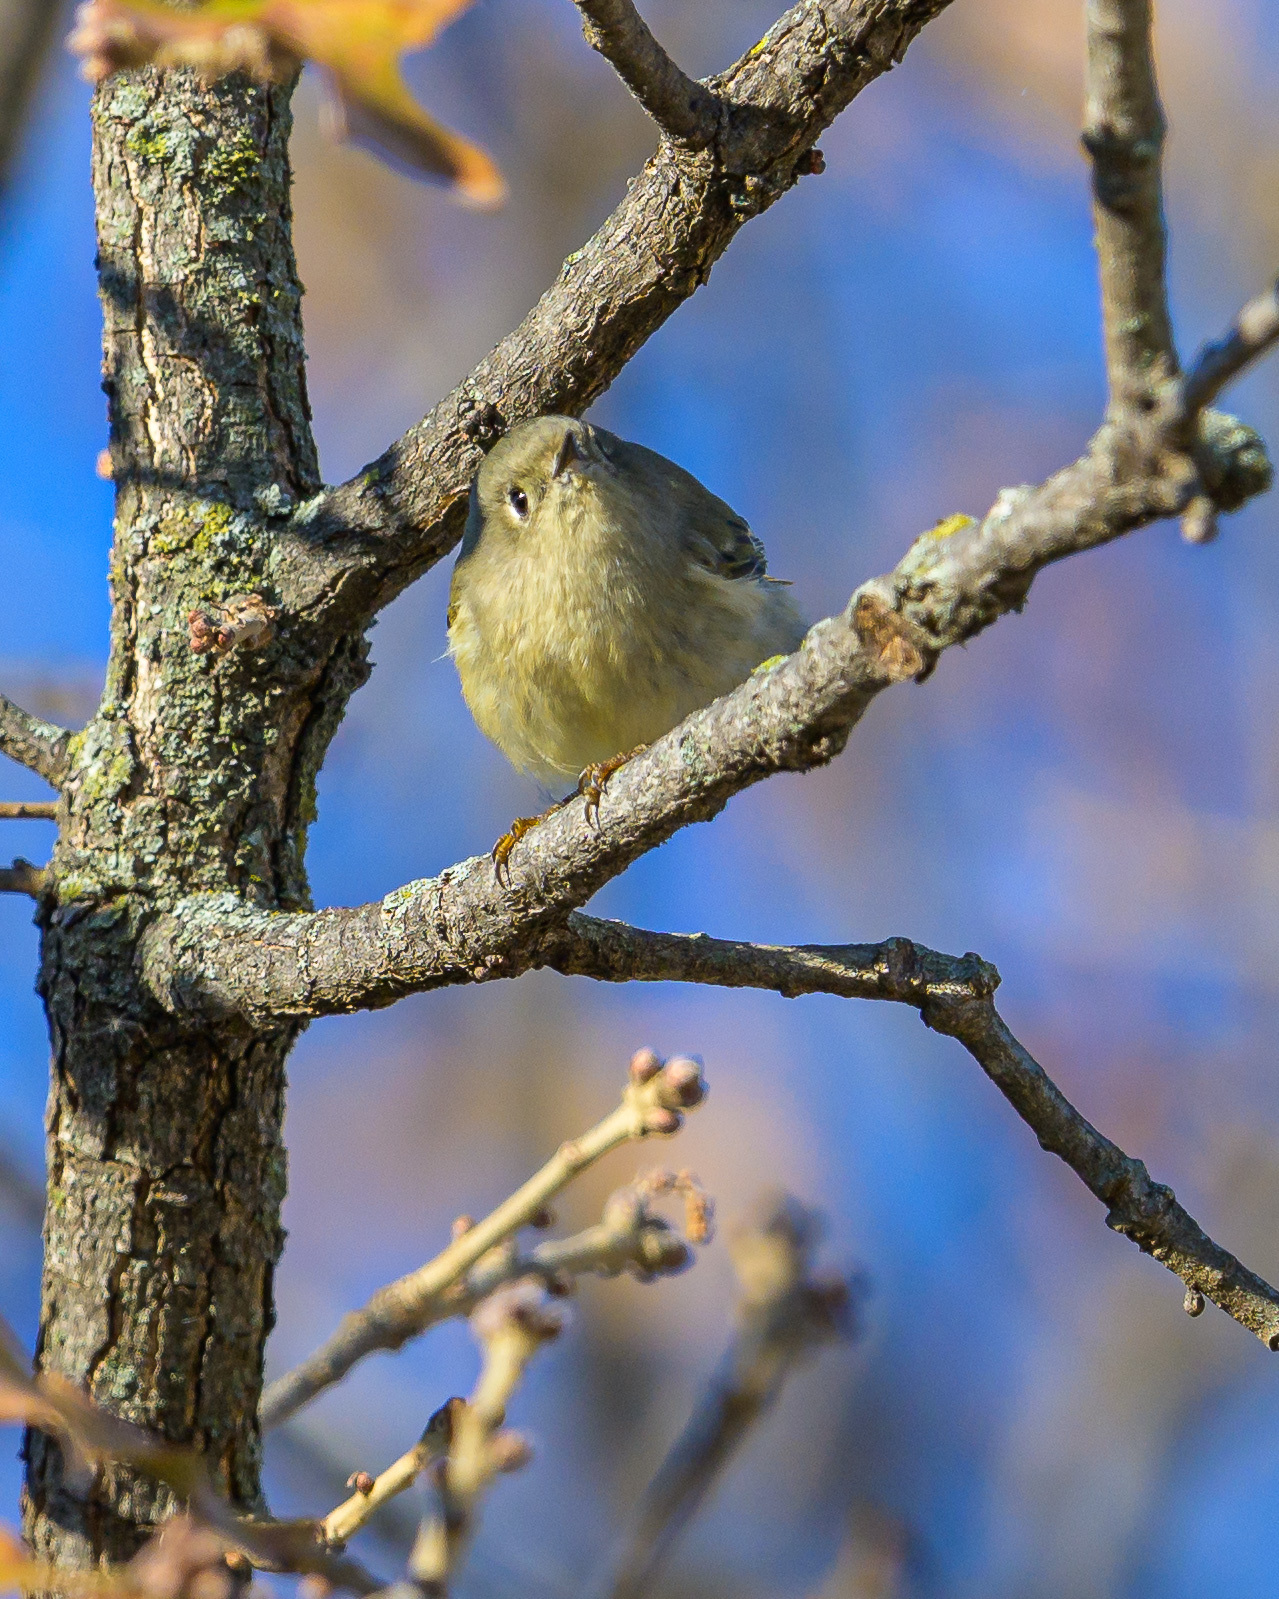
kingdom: Animalia
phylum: Chordata
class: Aves
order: Passeriformes
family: Regulidae
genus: Regulus
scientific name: Regulus calendula
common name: Ruby-crowned kinglet
